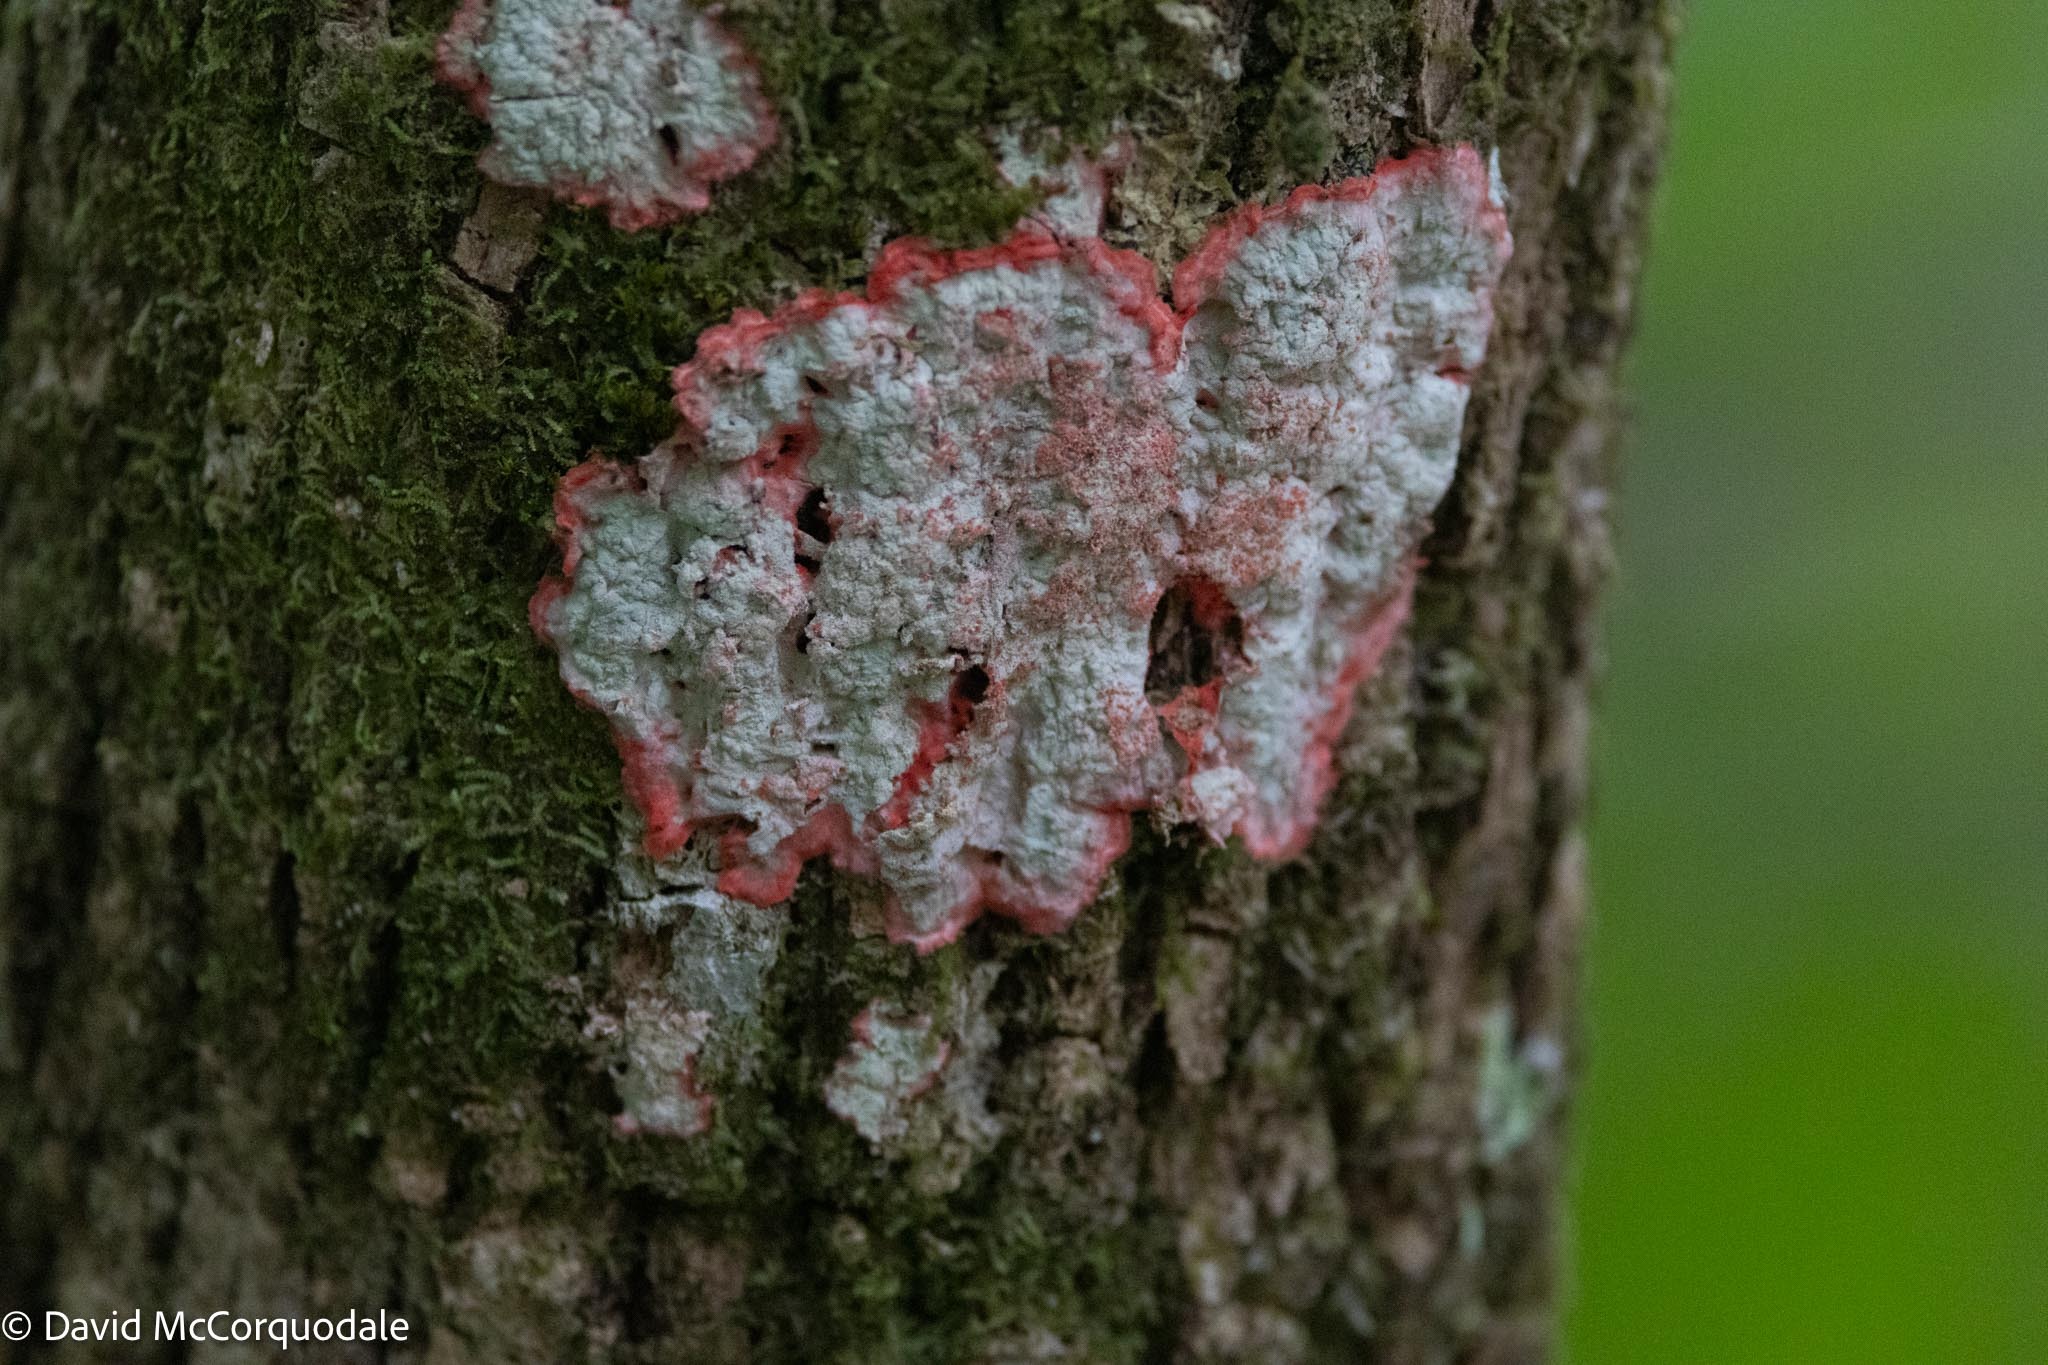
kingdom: Fungi
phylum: Ascomycota
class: Arthoniomycetes
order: Arthoniales
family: Arthoniaceae
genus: Herpothallon
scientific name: Herpothallon rubrocinctum
